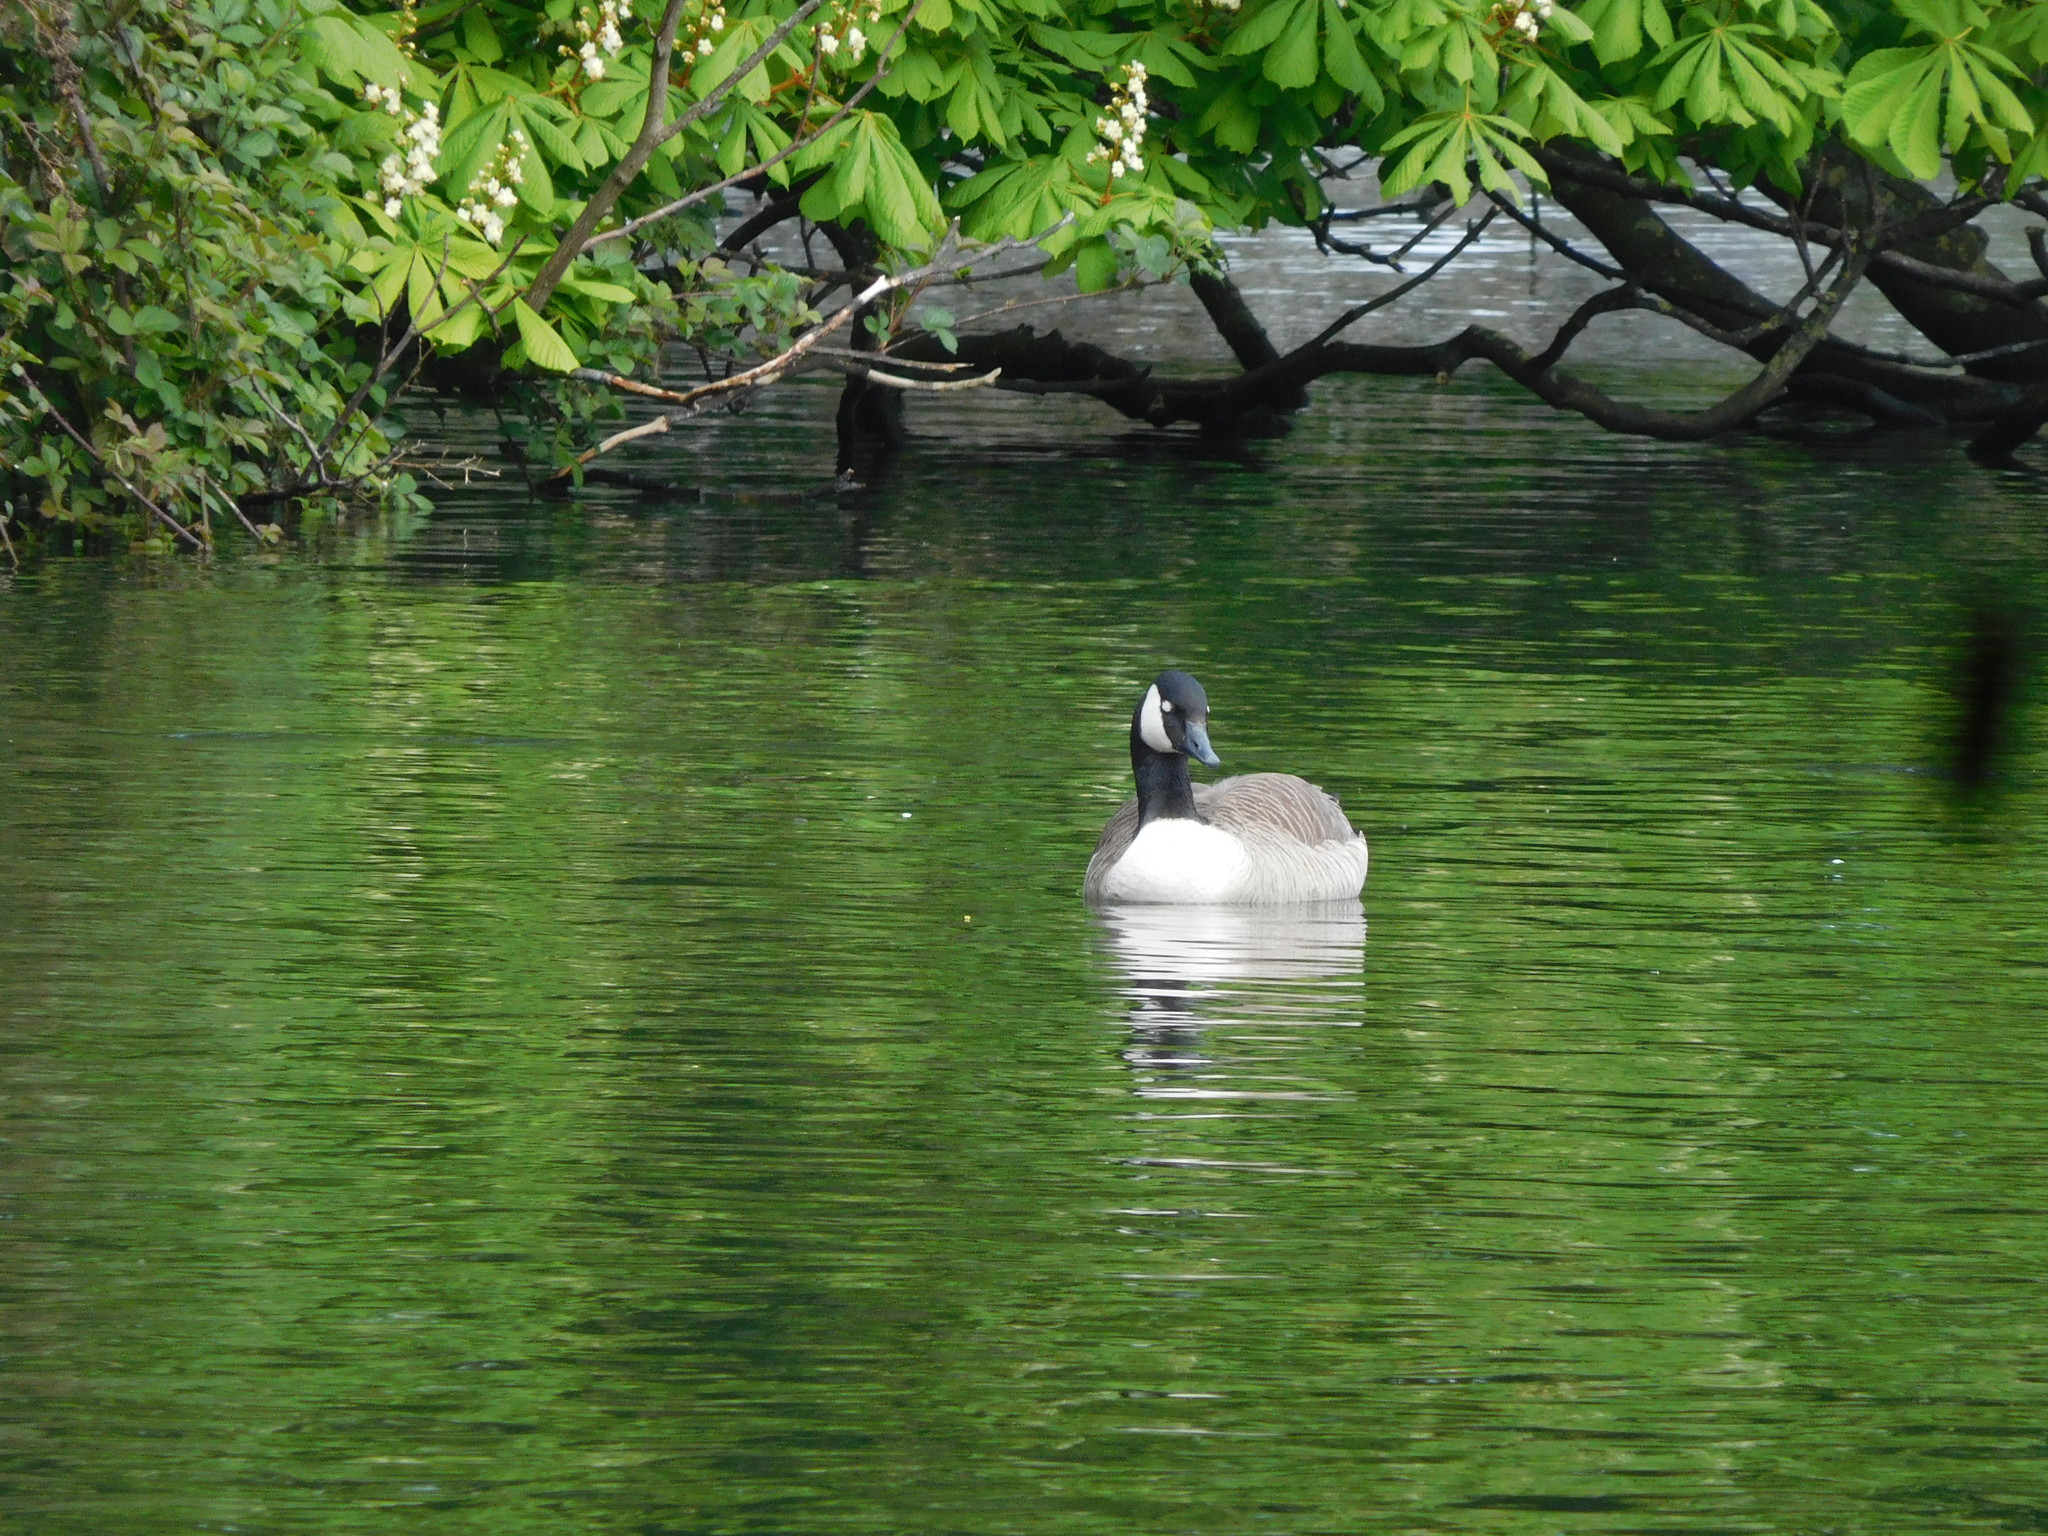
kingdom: Animalia
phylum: Chordata
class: Aves
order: Anseriformes
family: Anatidae
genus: Branta
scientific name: Branta canadensis
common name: Canada goose
